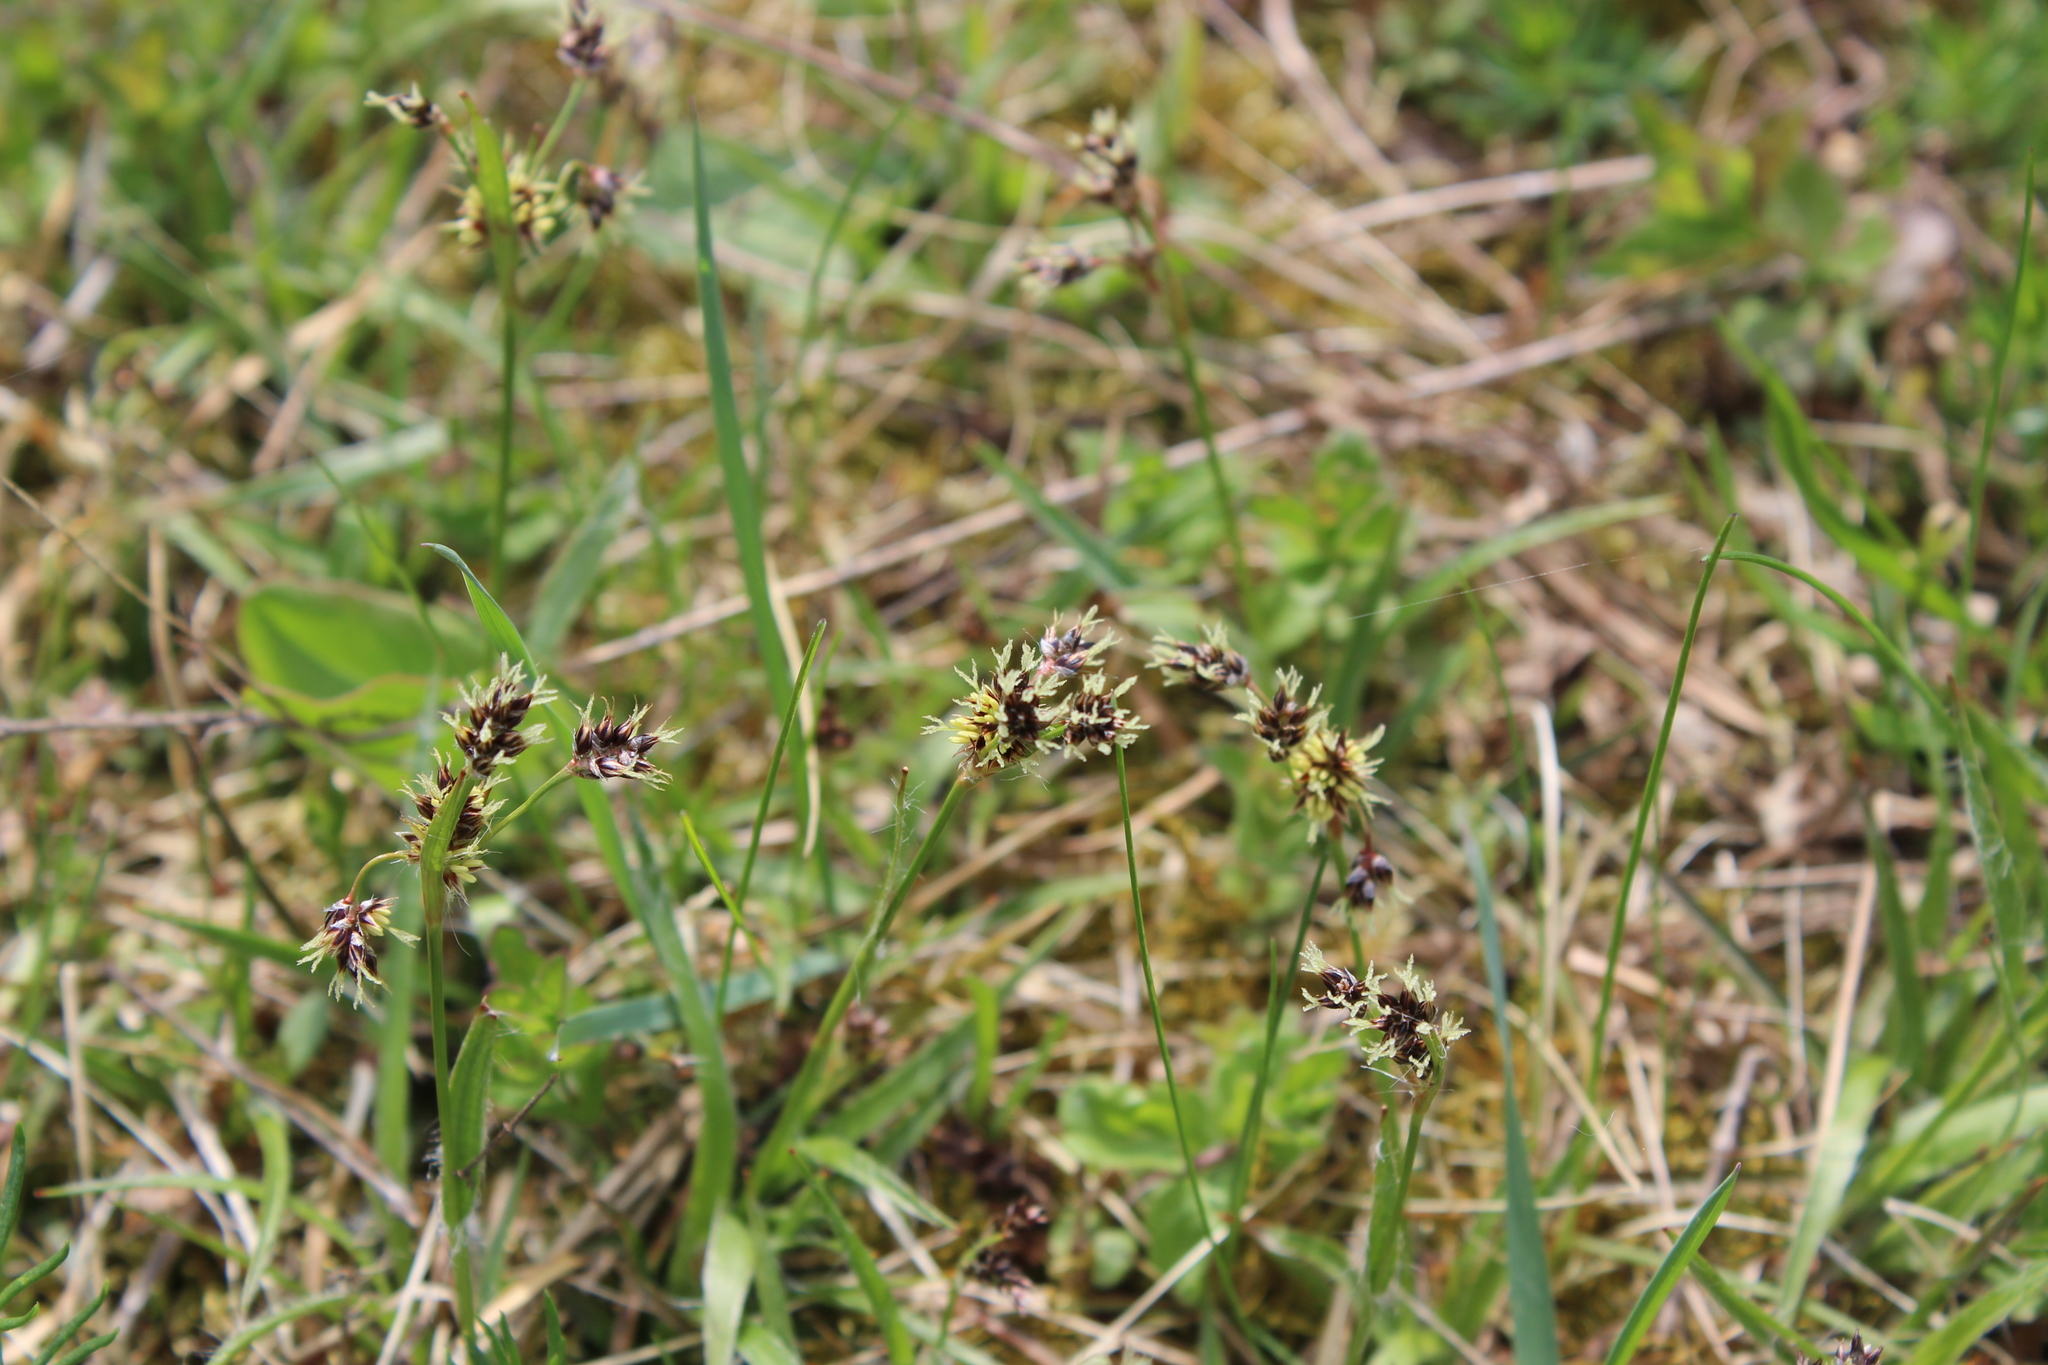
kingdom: Plantae
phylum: Tracheophyta
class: Liliopsida
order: Poales
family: Juncaceae
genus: Luzula
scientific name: Luzula campestris
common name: Field wood-rush
